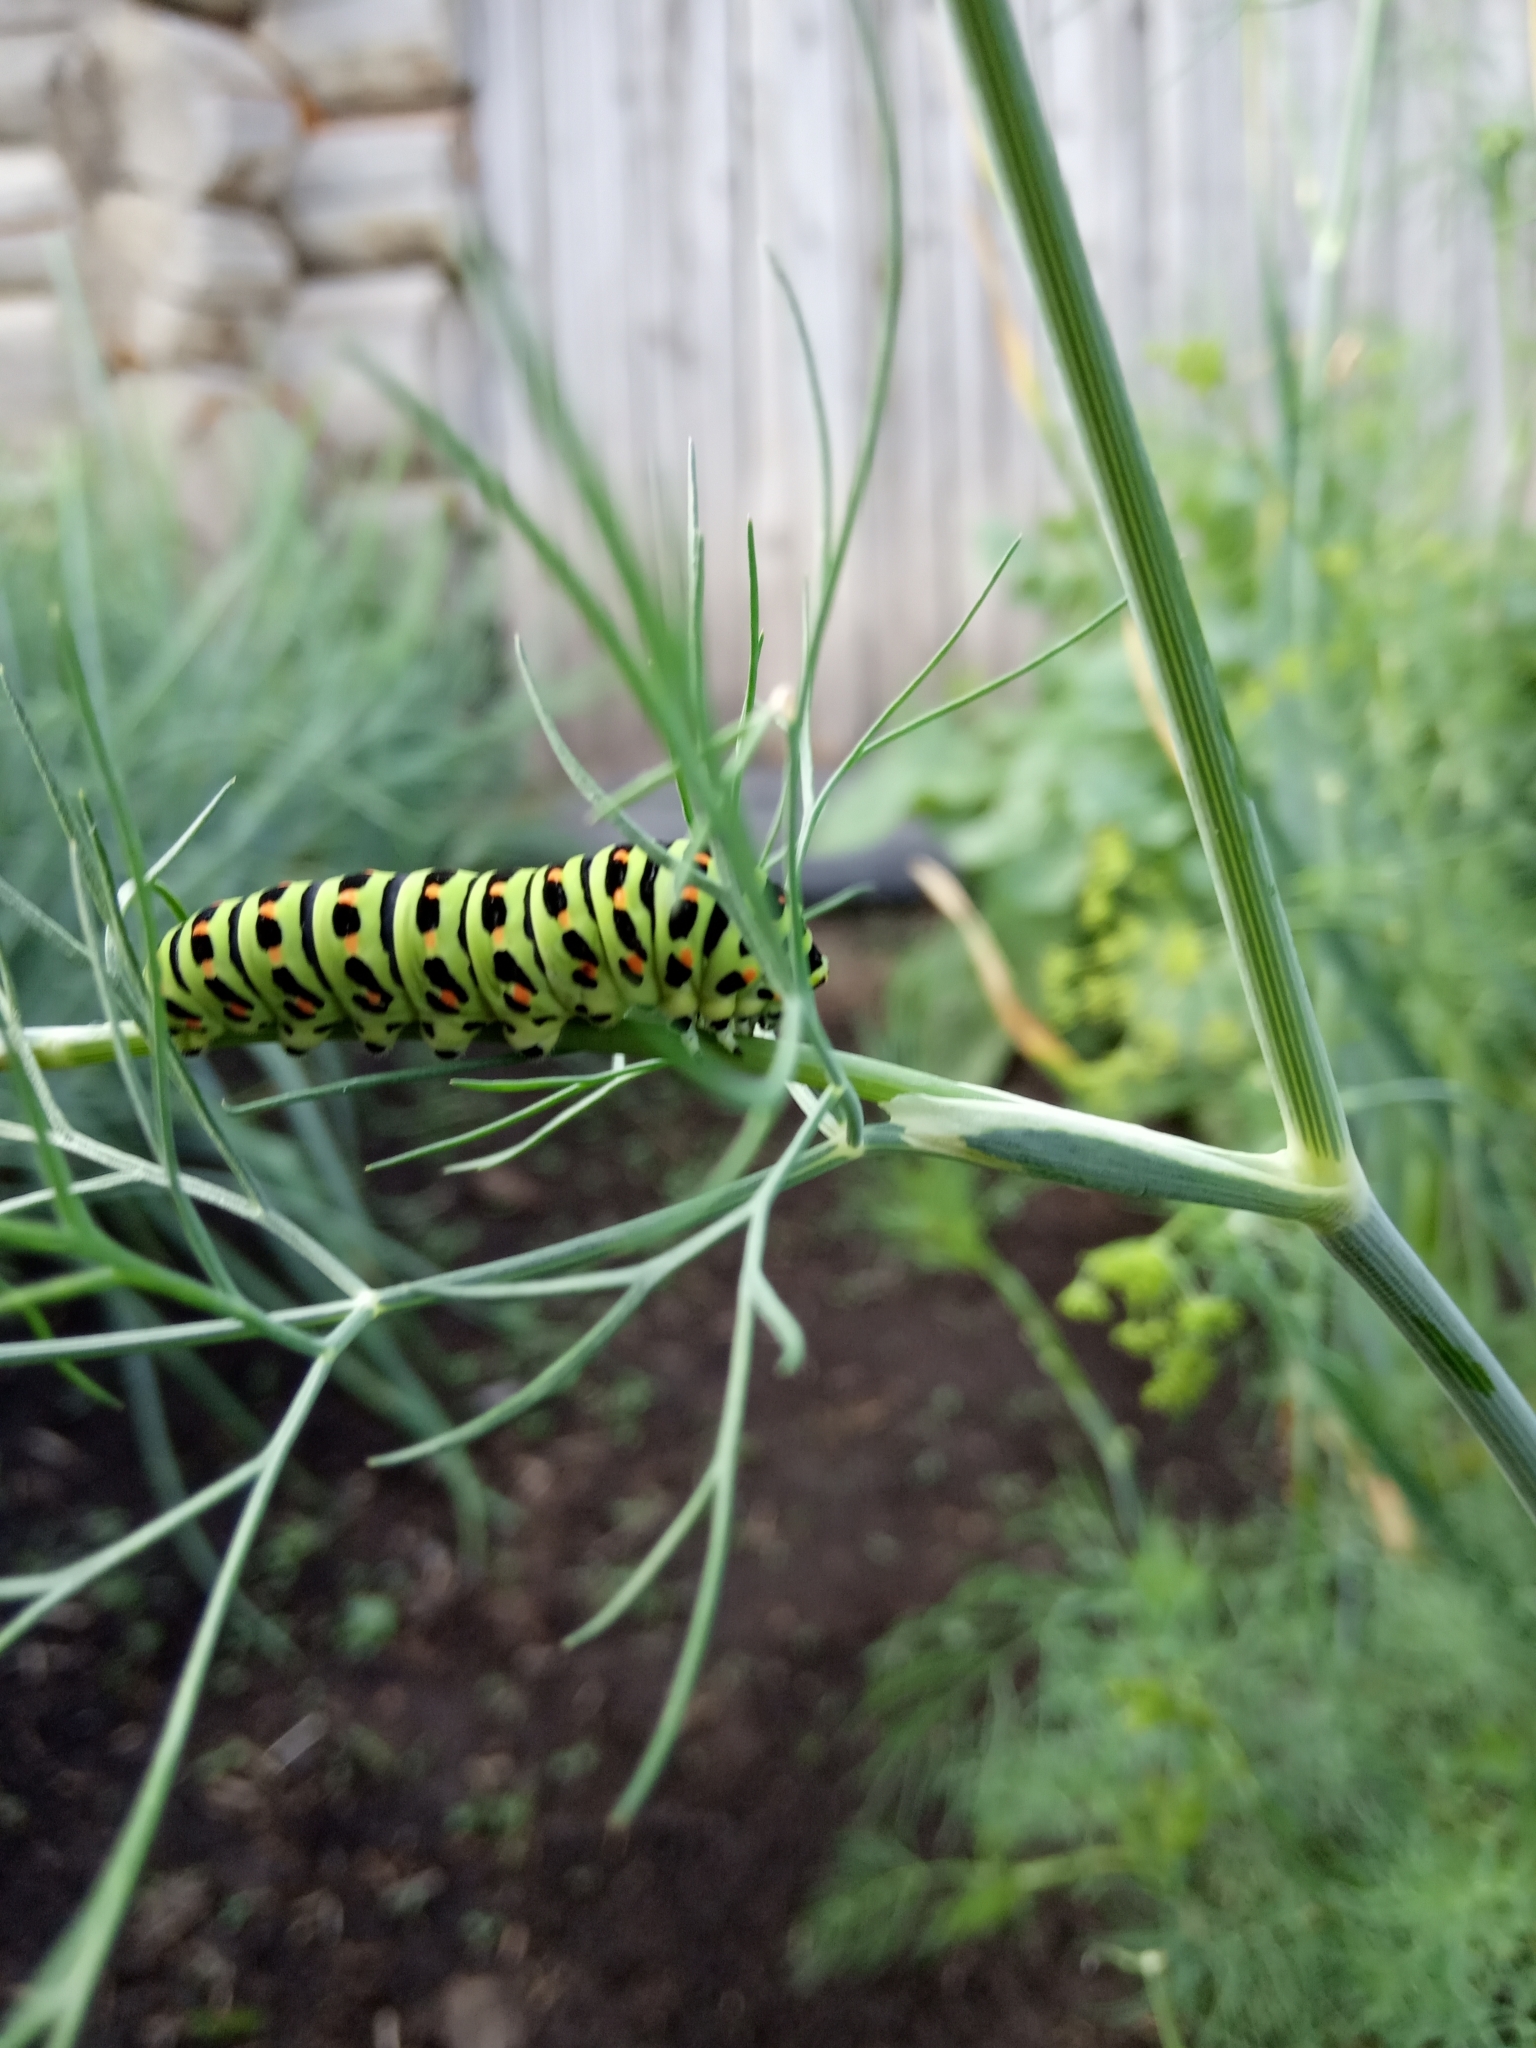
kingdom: Animalia
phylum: Arthropoda
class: Insecta
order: Lepidoptera
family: Papilionidae
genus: Papilio
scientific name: Papilio machaon
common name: Swallowtail
